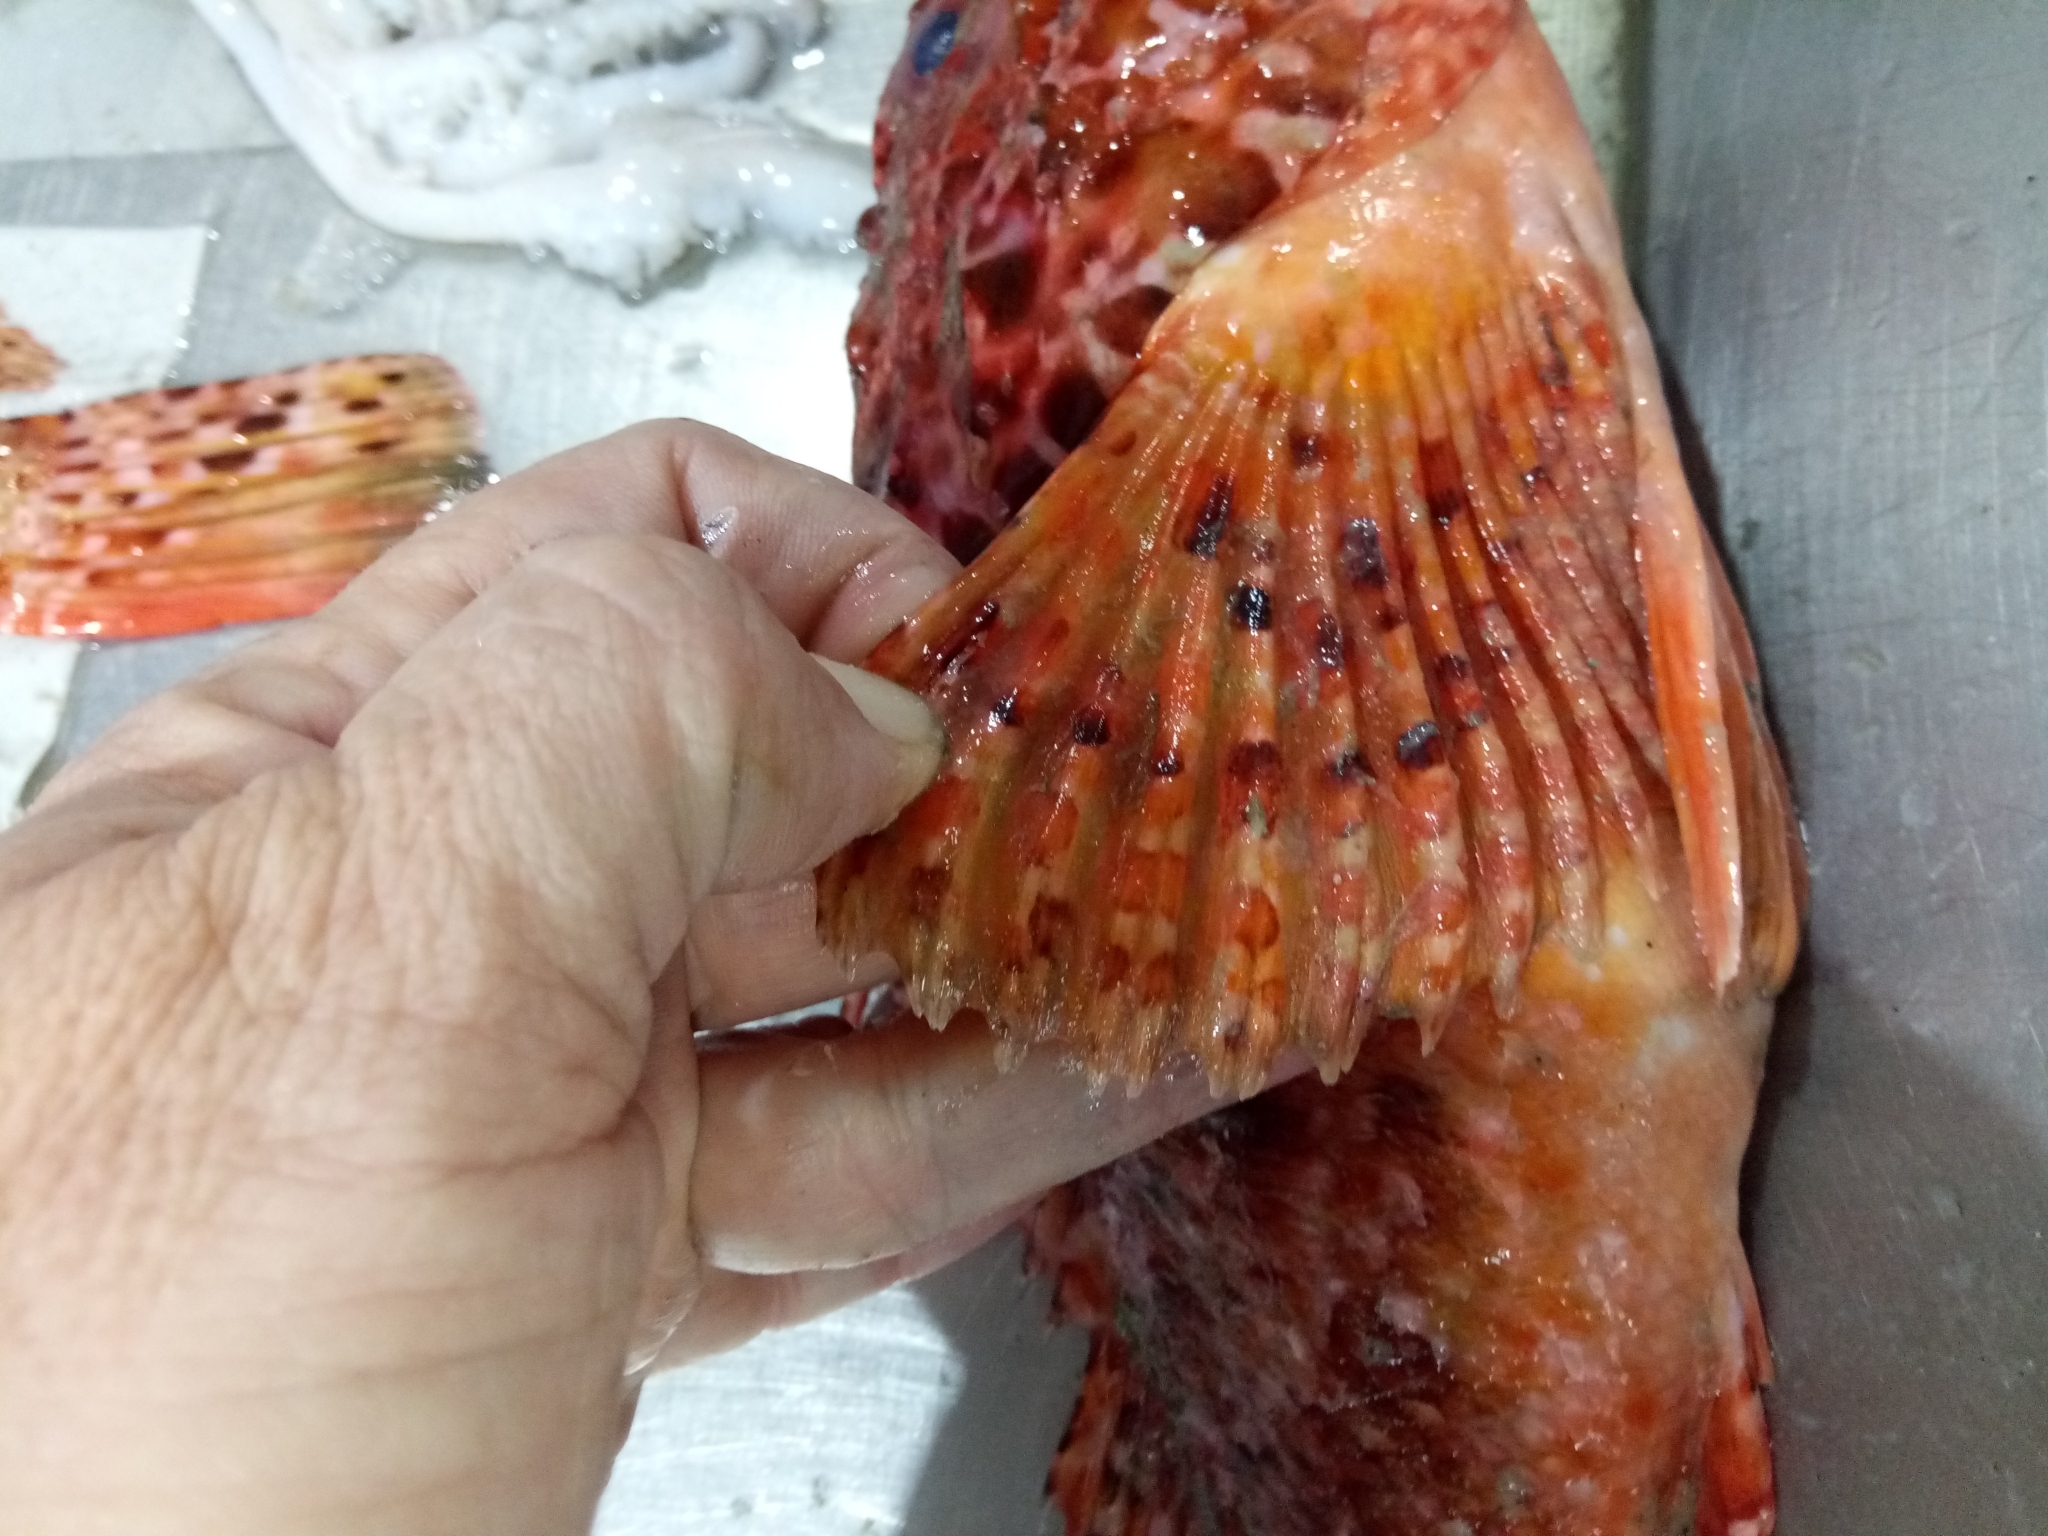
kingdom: Animalia
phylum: Chordata
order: Scorpaeniformes
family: Scorpaenidae
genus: Scorpaena
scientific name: Scorpaena scrofa
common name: Red scorpionfish
